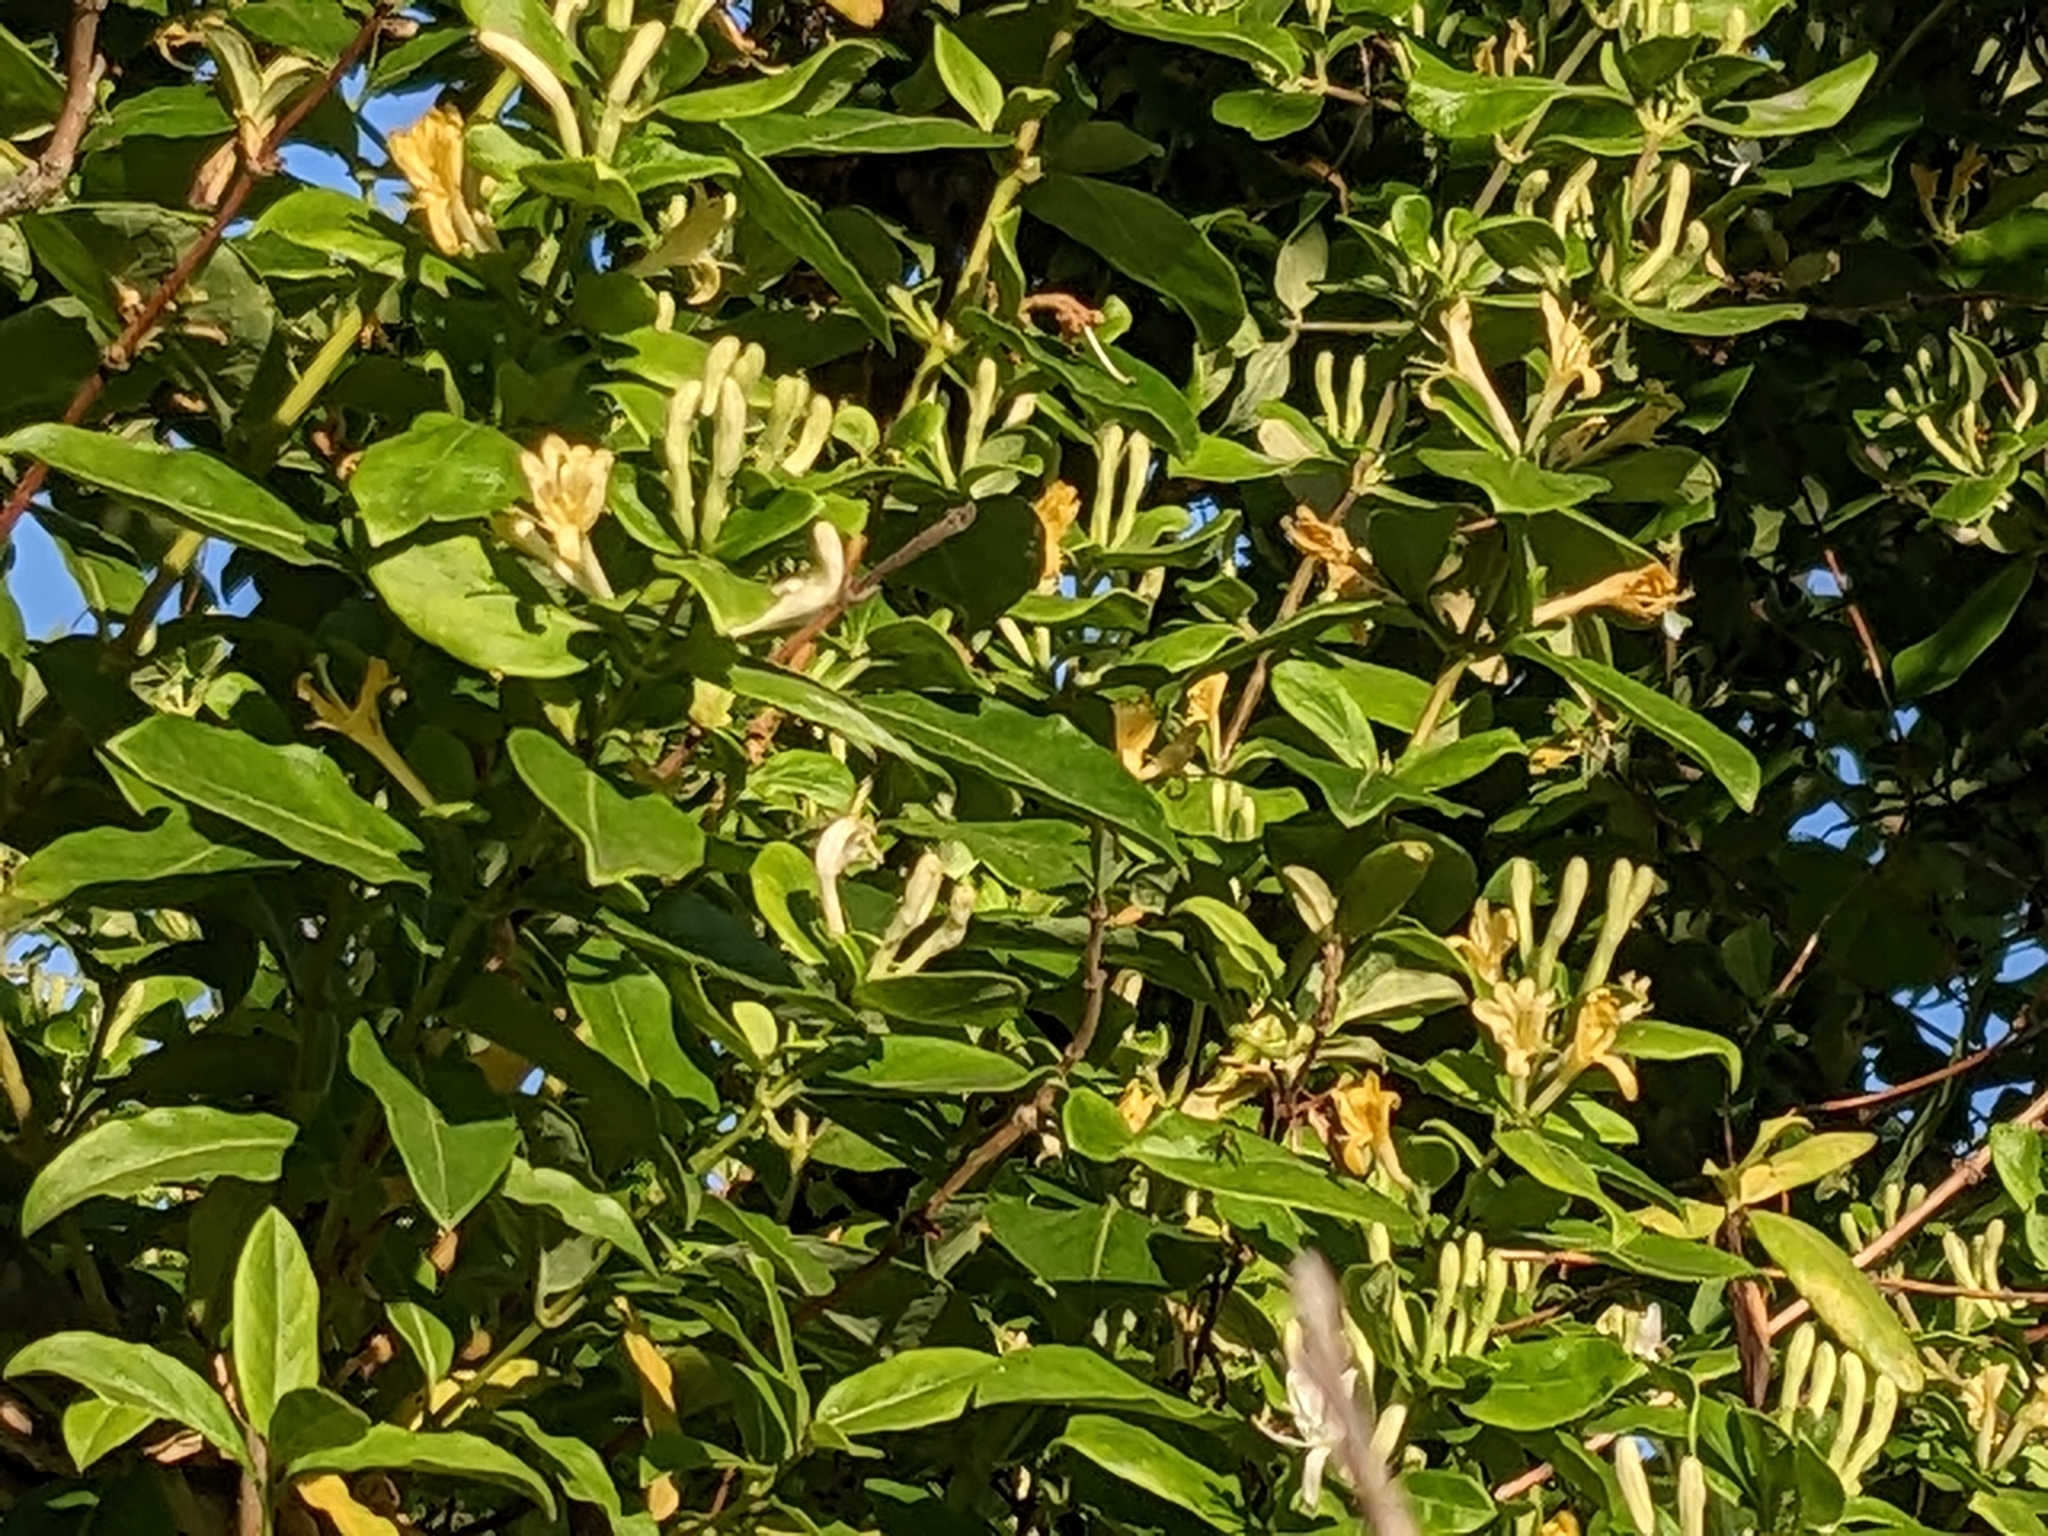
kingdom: Plantae
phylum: Tracheophyta
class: Magnoliopsida
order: Dipsacales
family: Caprifoliaceae
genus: Lonicera
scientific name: Lonicera japonica
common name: Japanese honeysuckle
